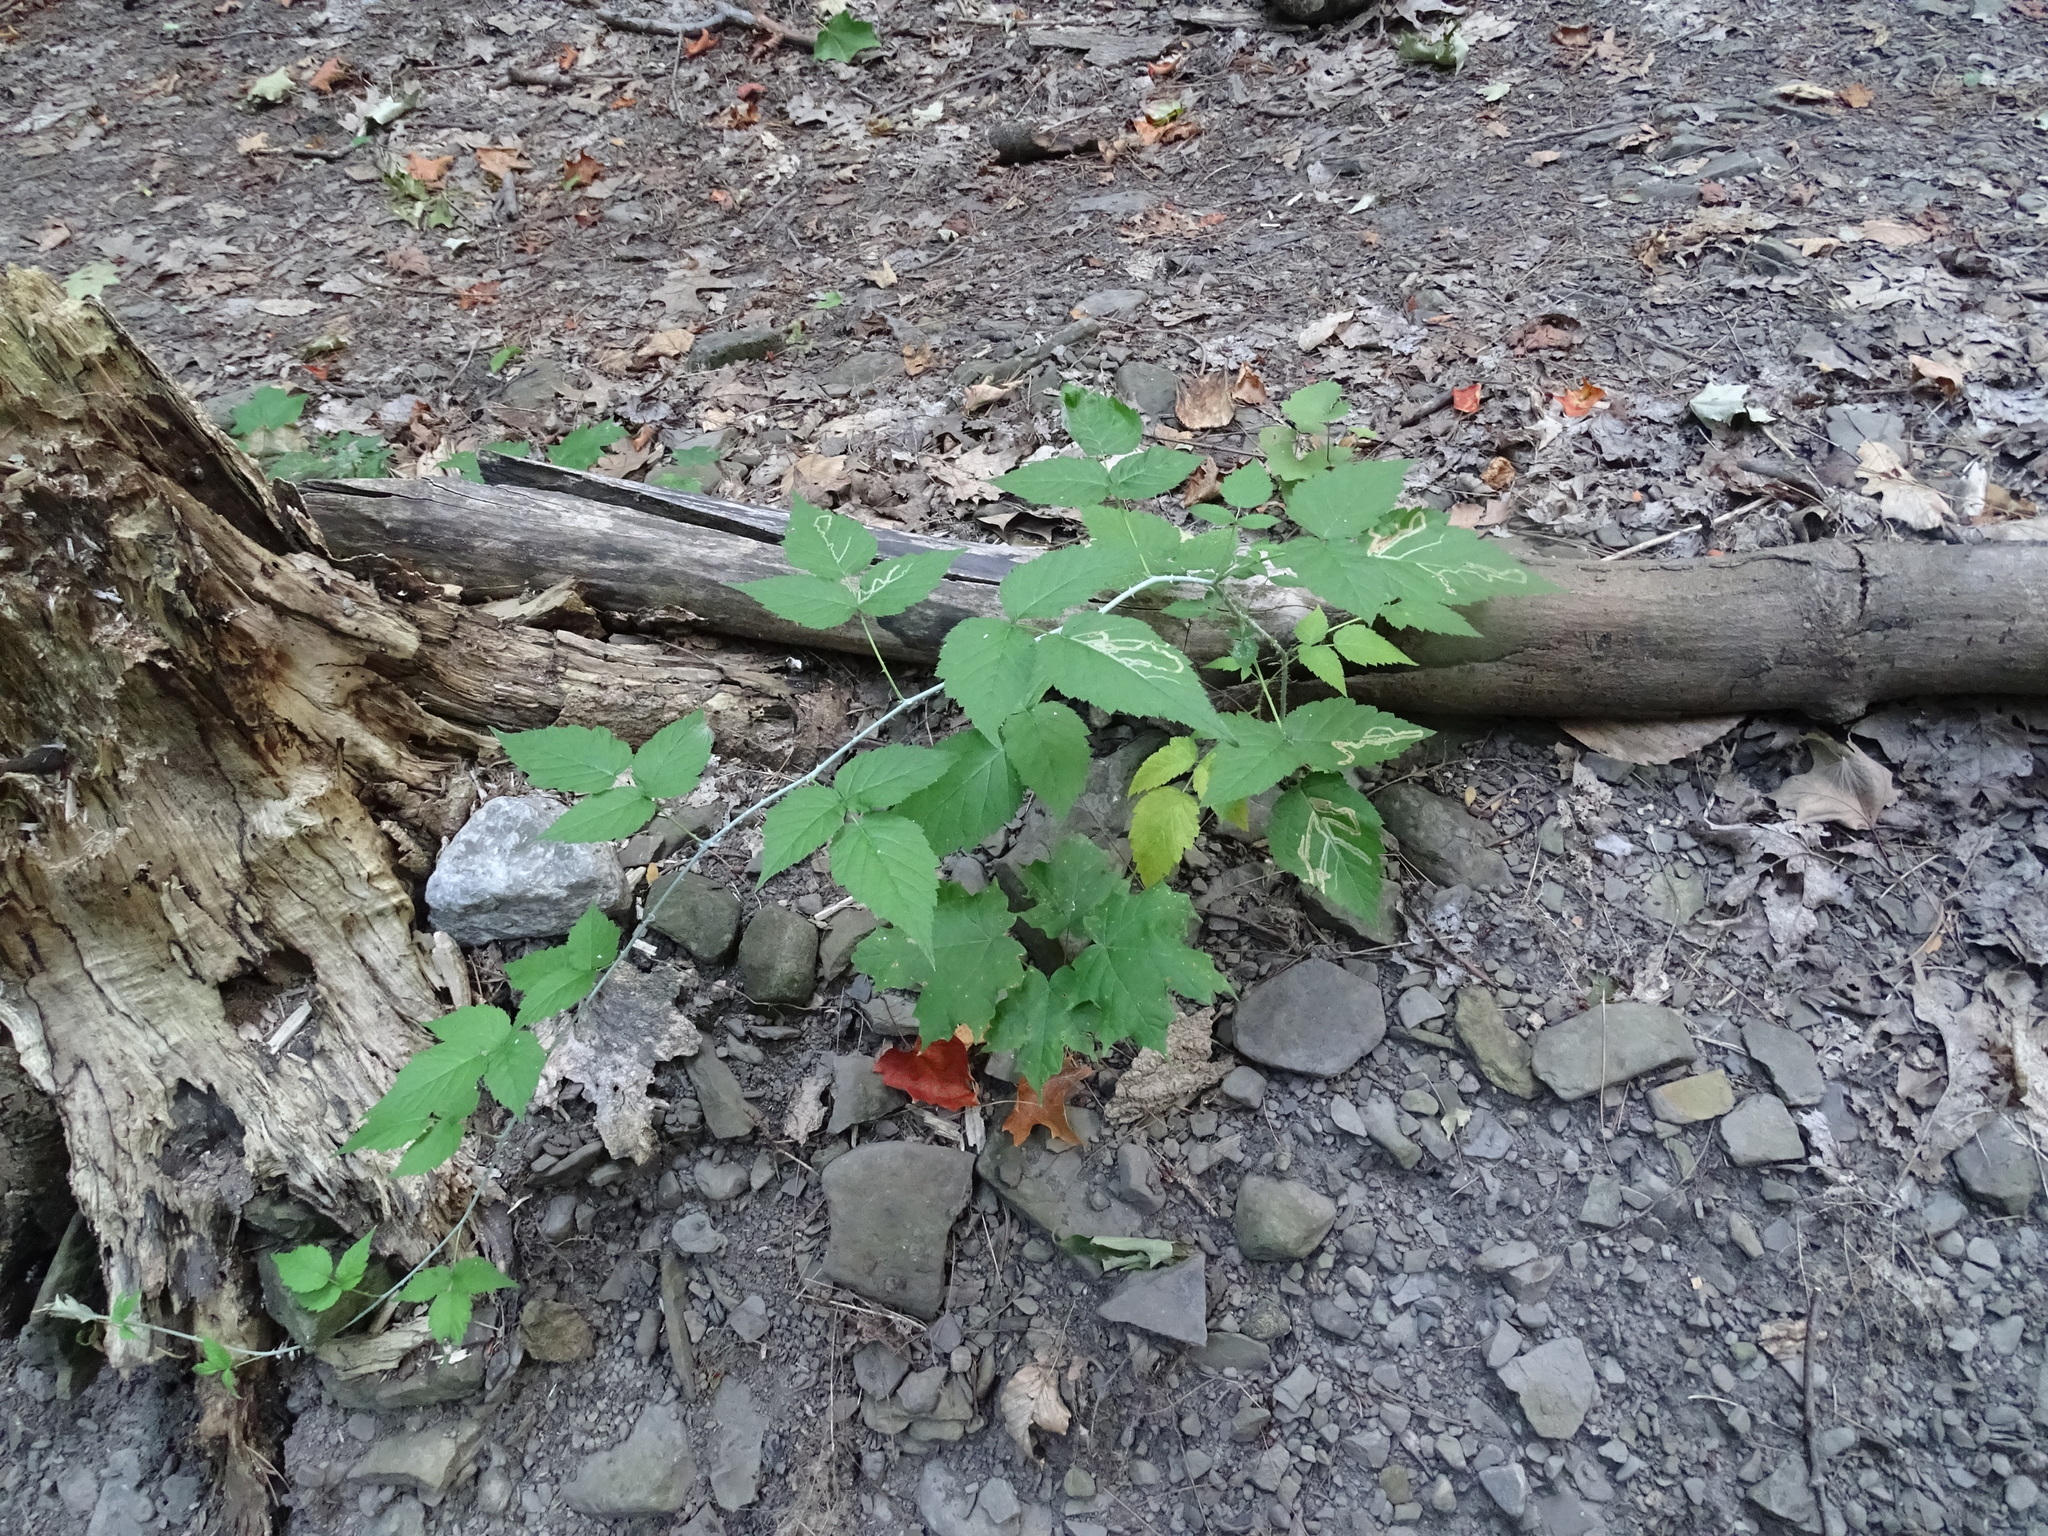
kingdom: Plantae
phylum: Tracheophyta
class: Magnoliopsida
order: Rosales
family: Rosaceae
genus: Rubus
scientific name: Rubus occidentalis
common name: Black raspberry
